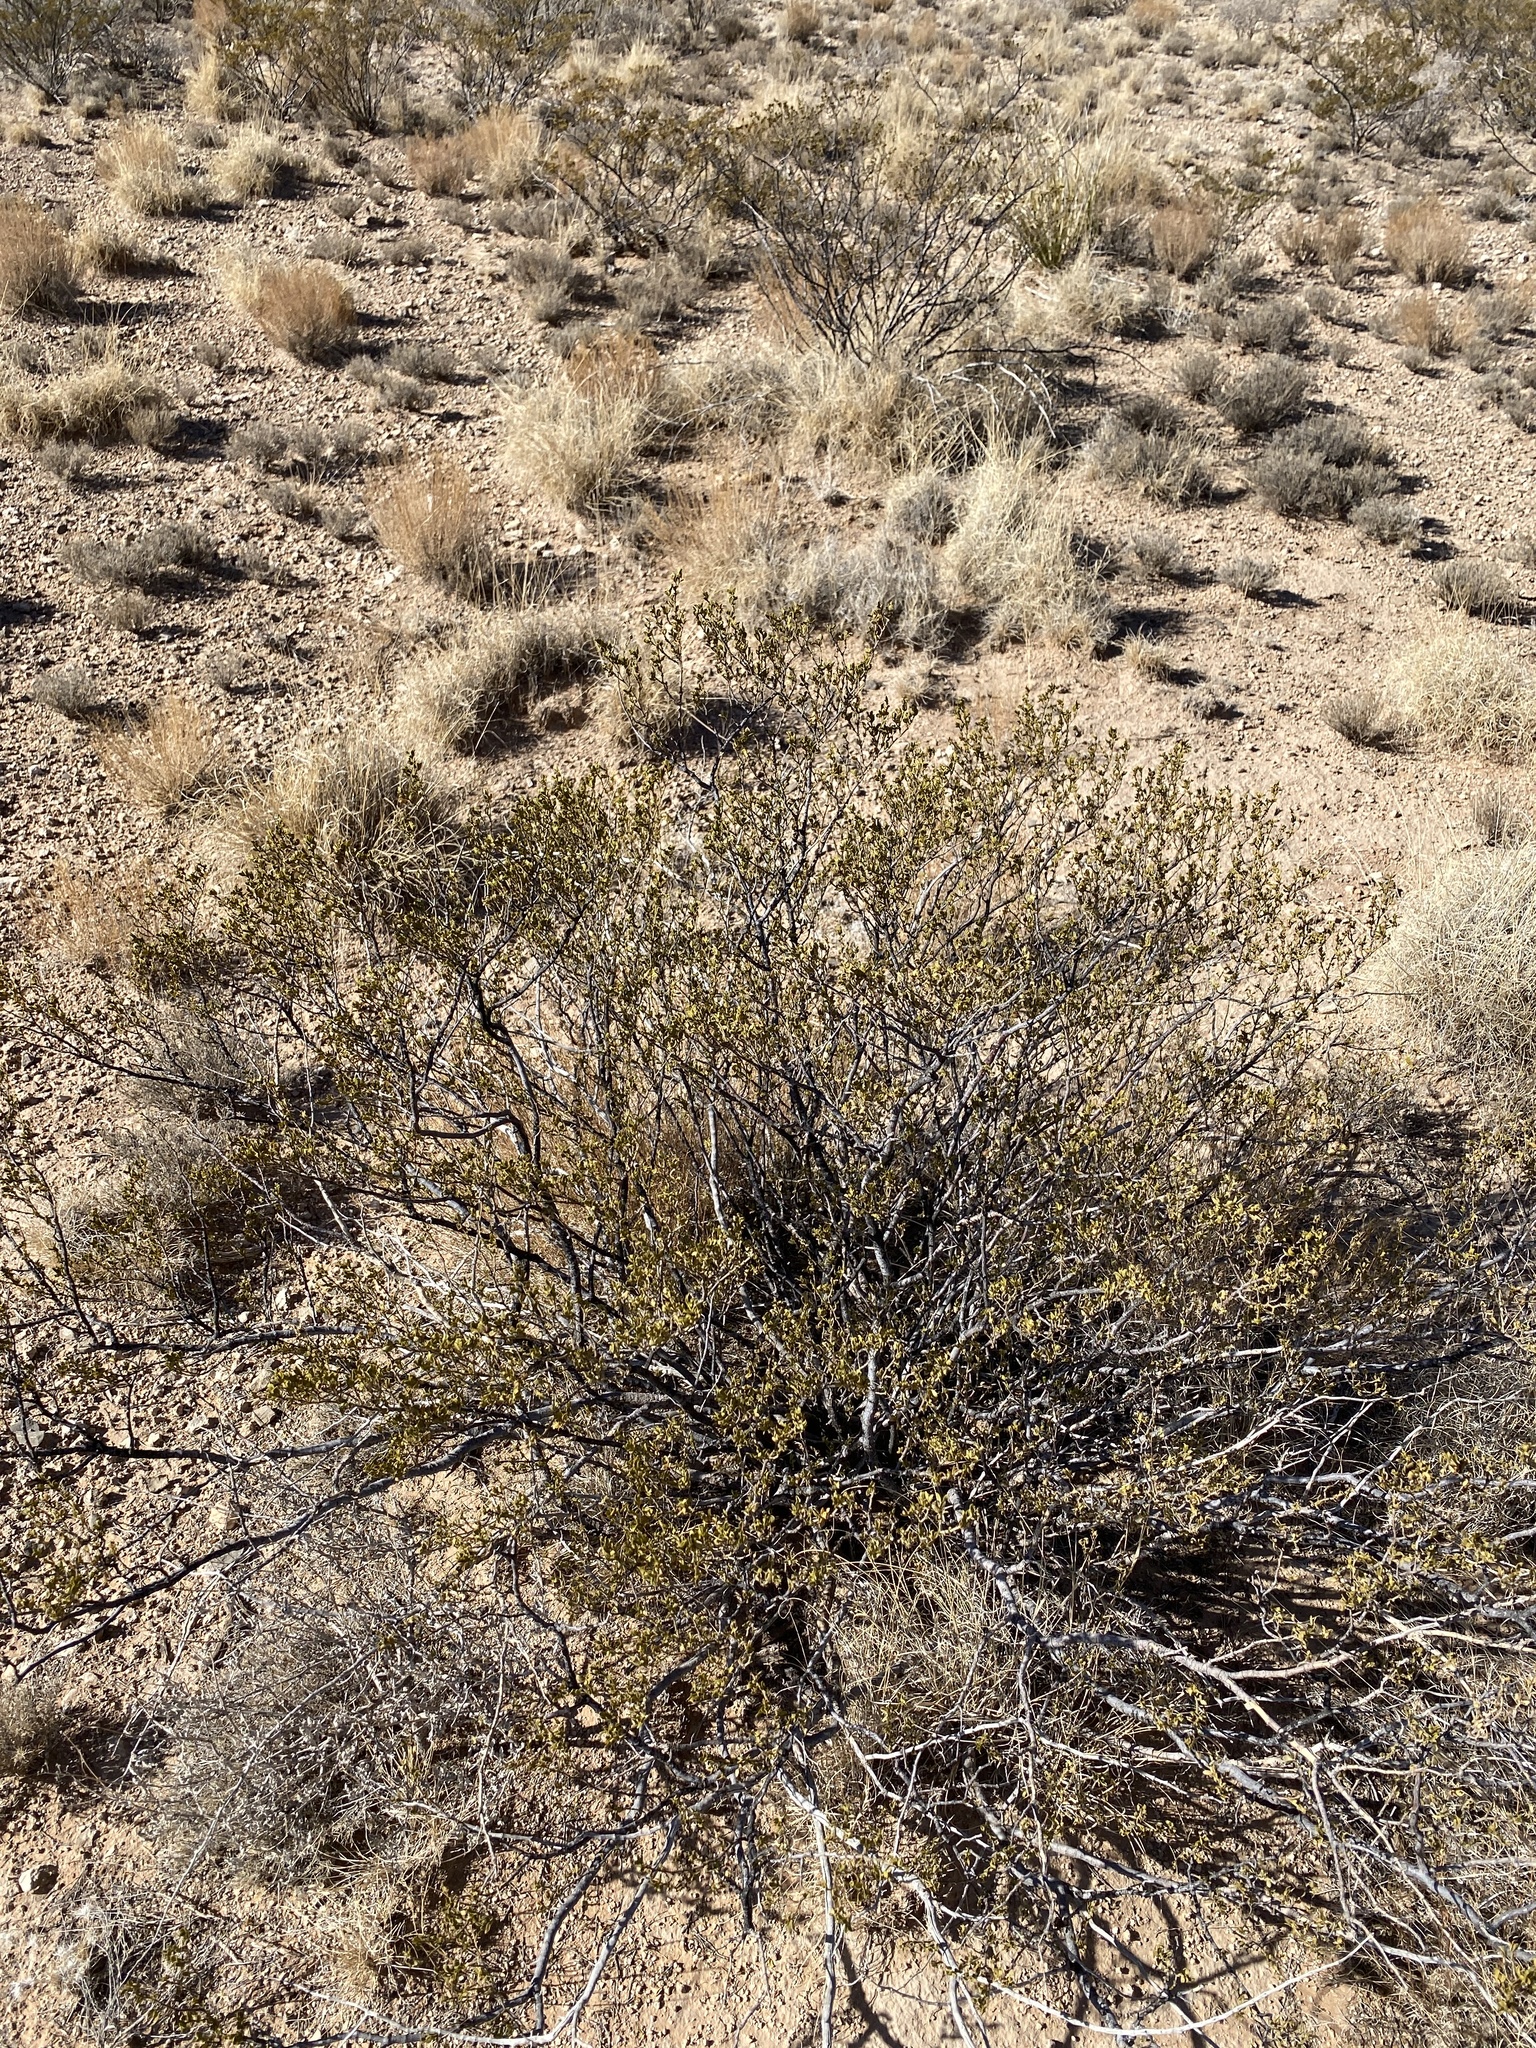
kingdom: Plantae
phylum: Tracheophyta
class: Magnoliopsida
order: Zygophyllales
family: Zygophyllaceae
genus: Larrea
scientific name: Larrea tridentata
